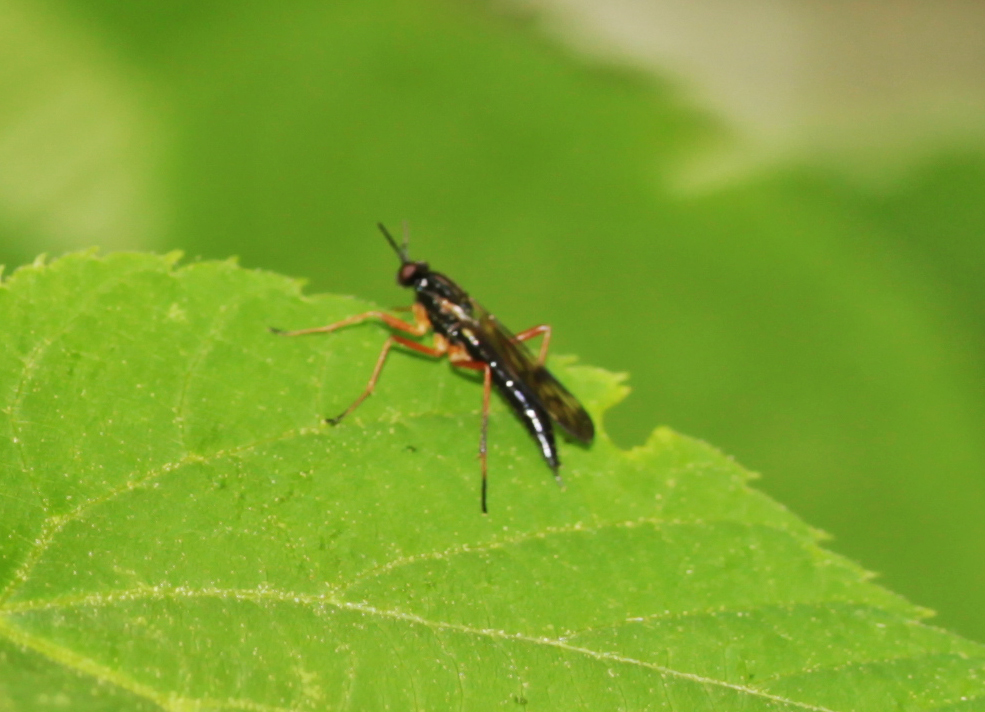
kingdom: Animalia
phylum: Arthropoda
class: Insecta
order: Diptera
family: Xylophagidae
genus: Xylophagus
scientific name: Xylophagus
